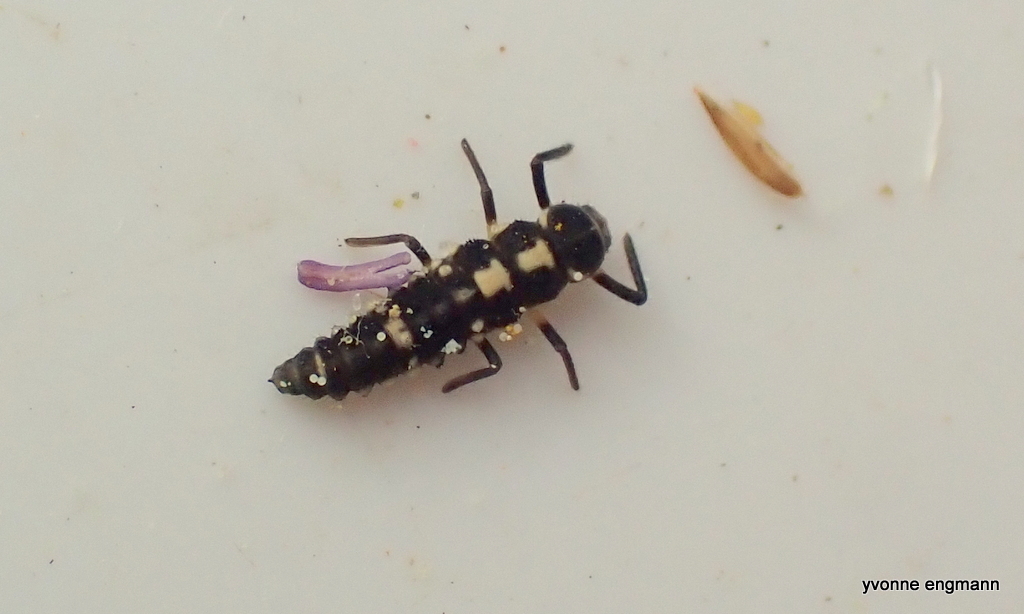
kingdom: Animalia
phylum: Arthropoda
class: Insecta
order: Coleoptera
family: Coccinellidae
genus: Propylaea
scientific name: Propylaea quatuordecimpunctata
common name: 14-spotted ladybird beetle
